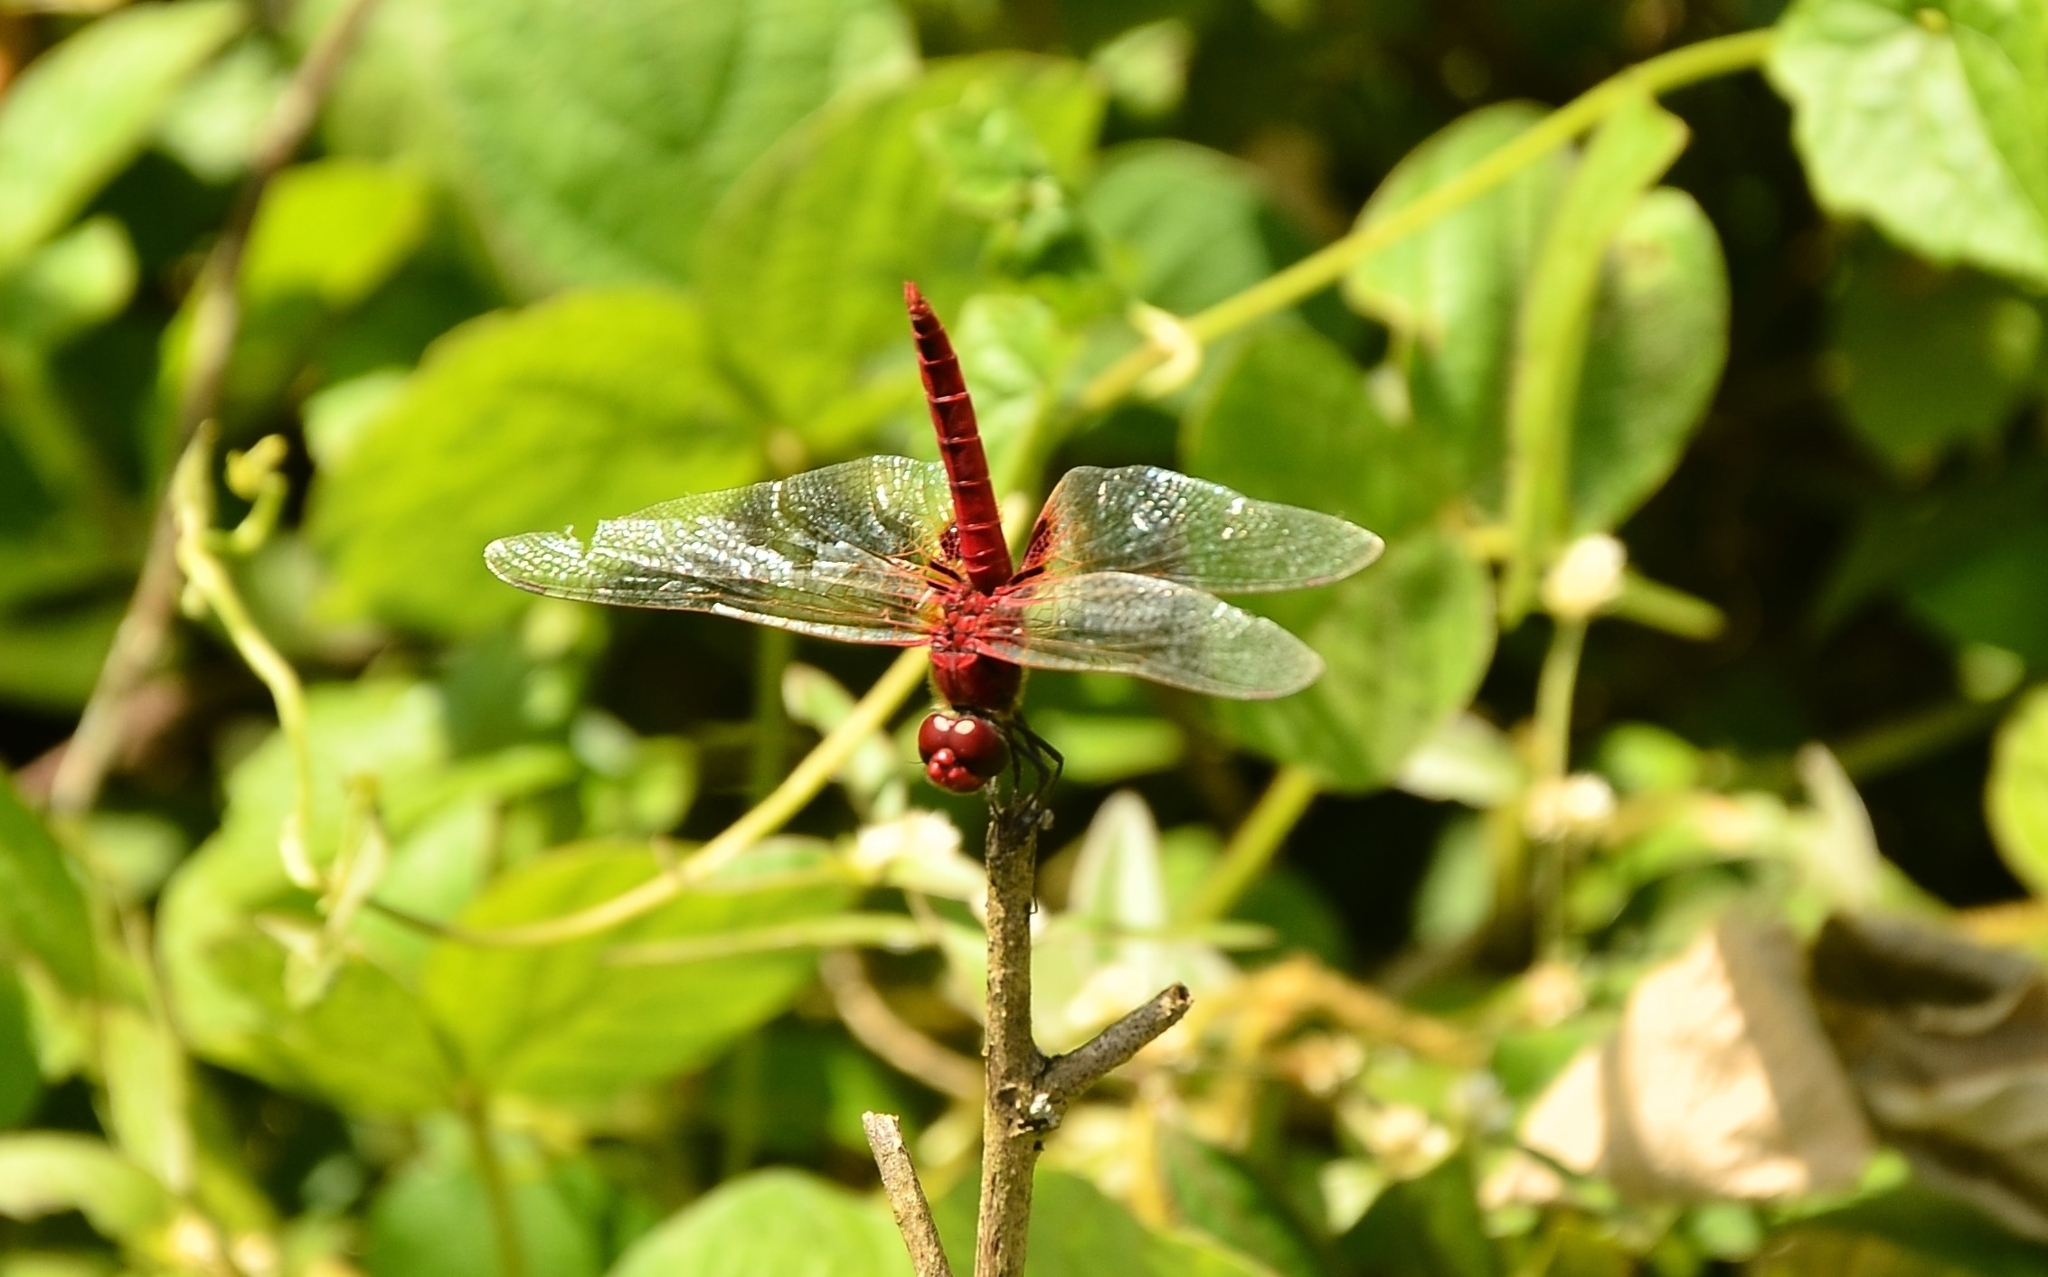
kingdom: Animalia
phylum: Arthropoda
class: Insecta
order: Odonata
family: Libellulidae
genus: Urothemis
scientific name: Urothemis signata
